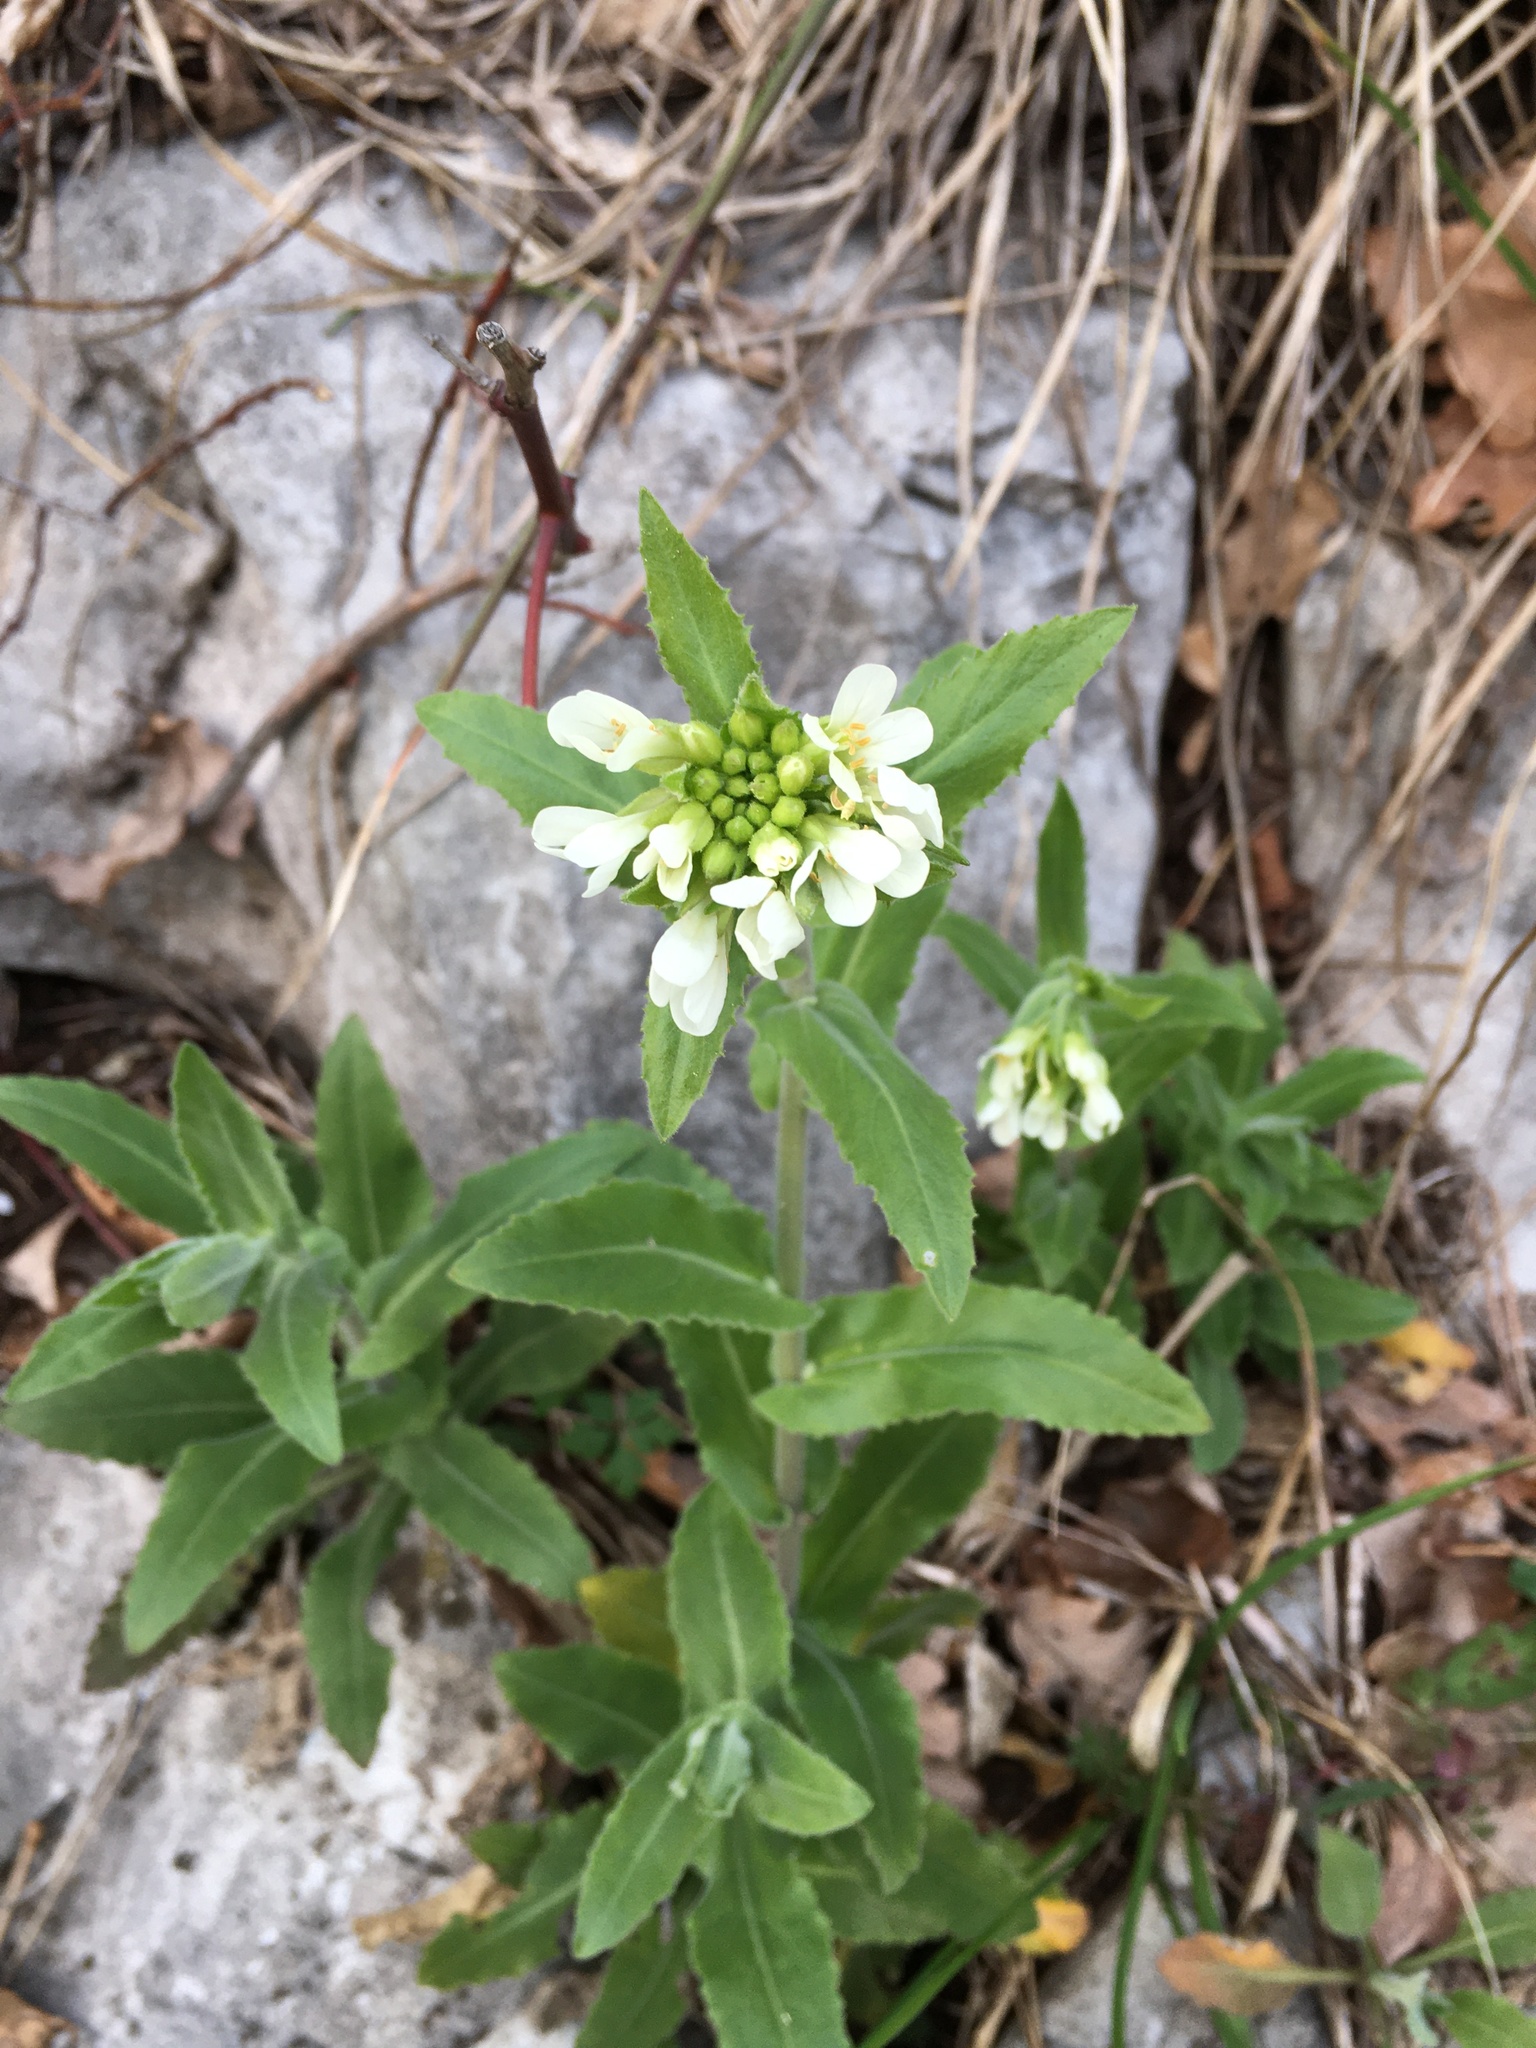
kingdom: Plantae
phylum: Tracheophyta
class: Magnoliopsida
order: Brassicales
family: Brassicaceae
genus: Pseudoturritis
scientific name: Pseudoturritis turrita
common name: Tower cress
